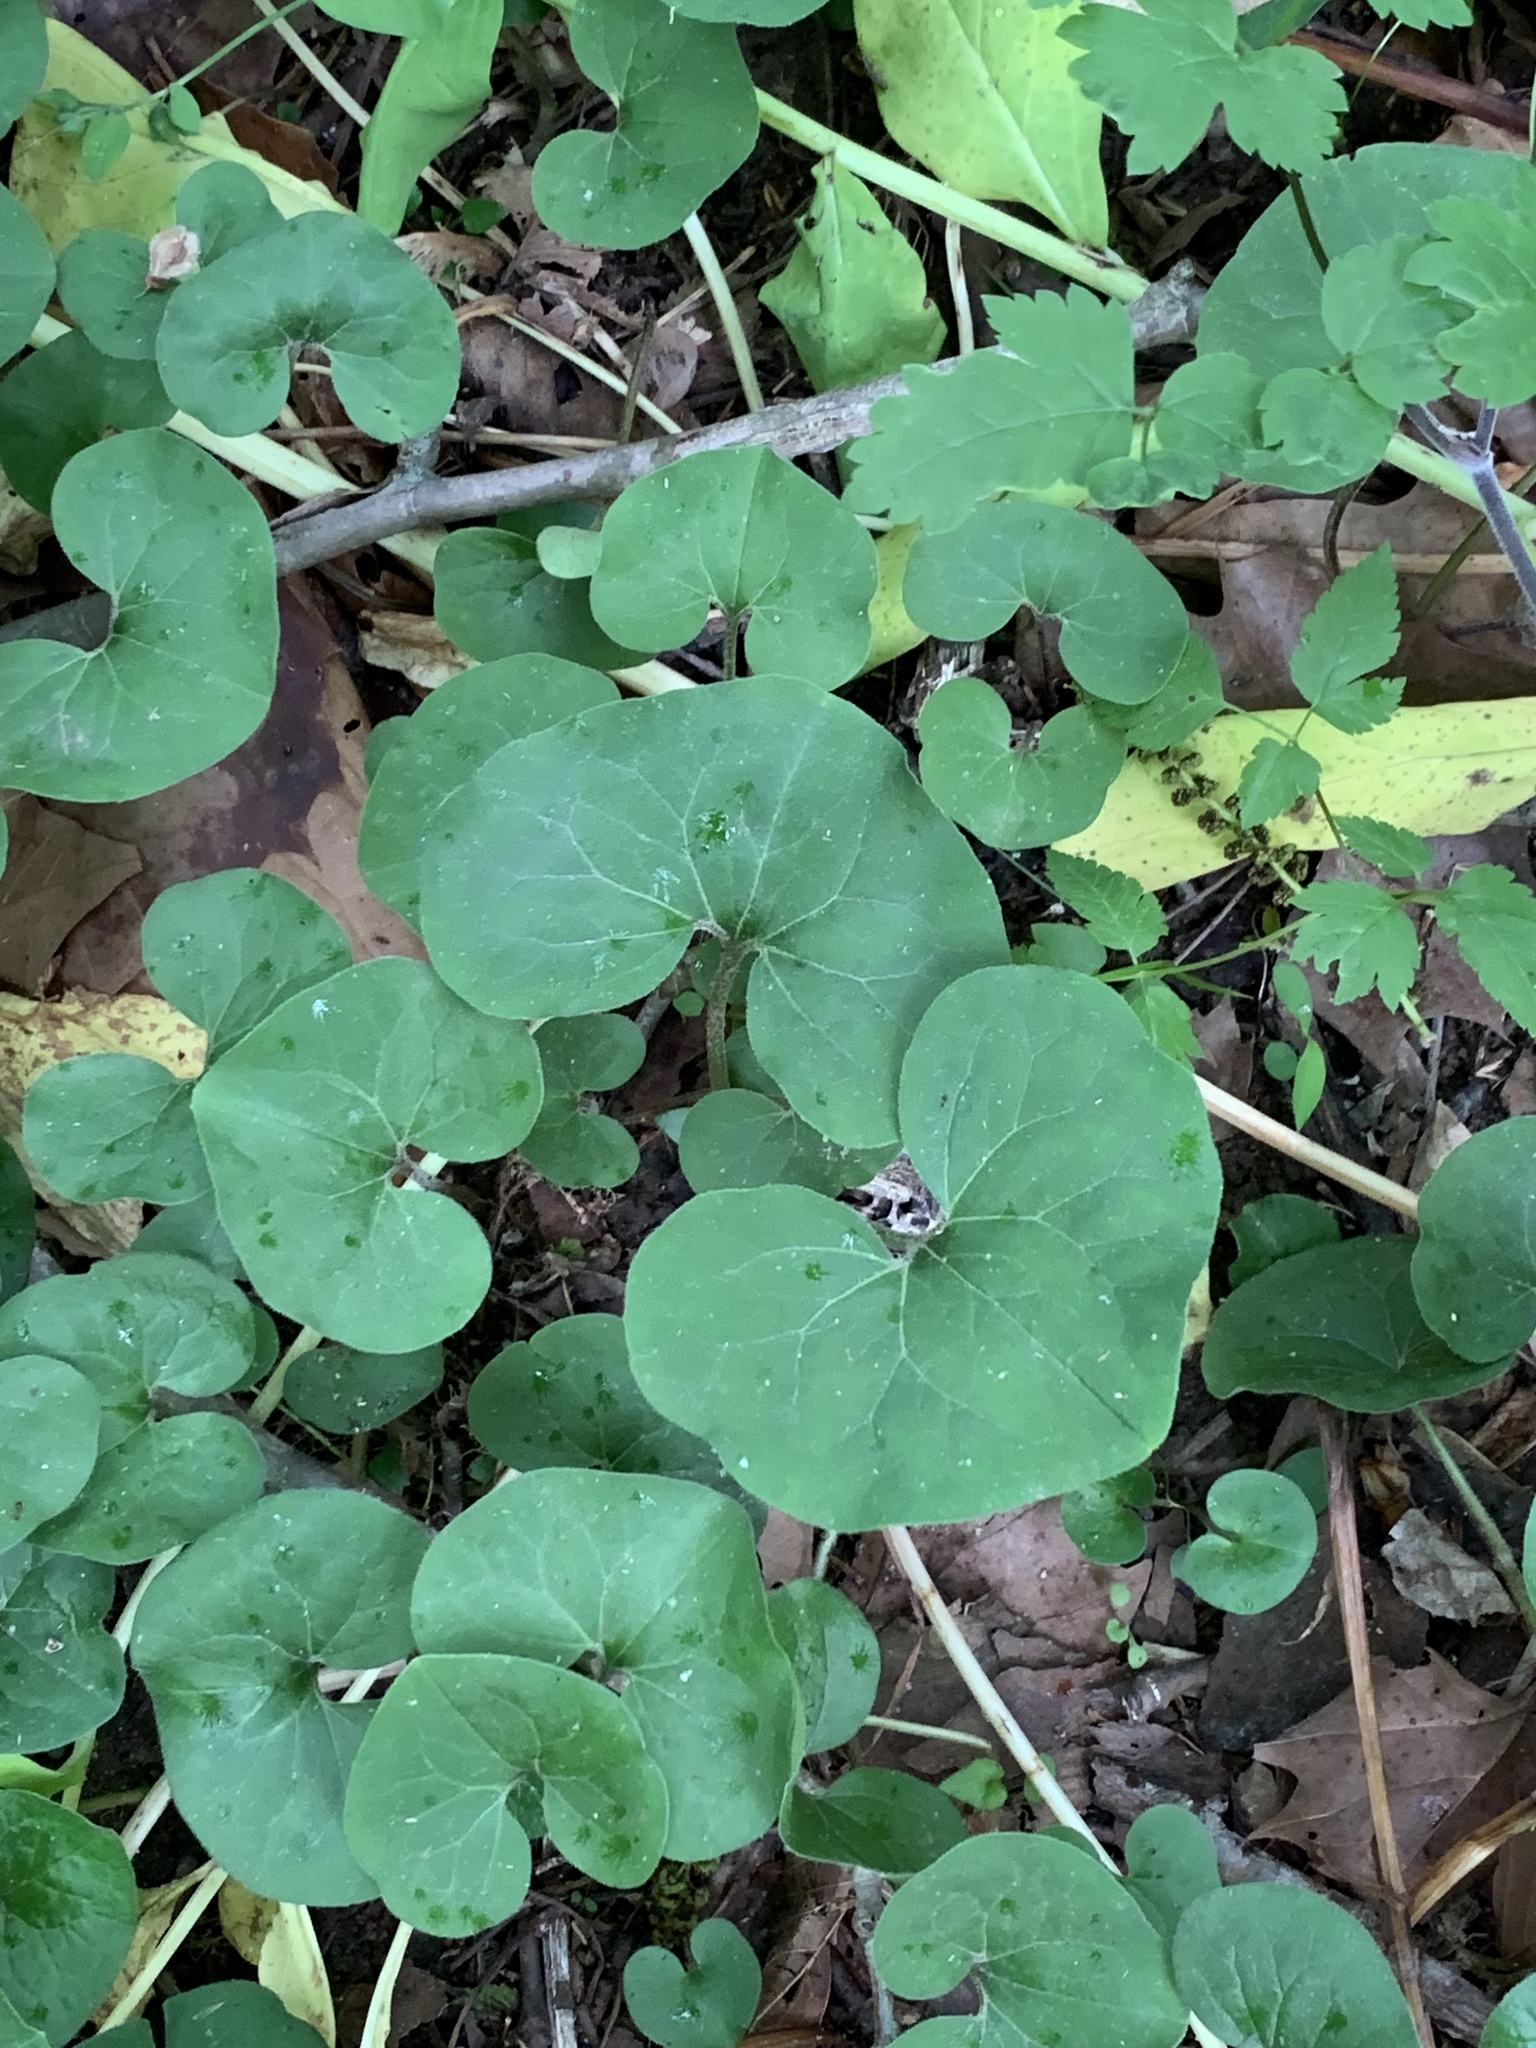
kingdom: Plantae
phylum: Tracheophyta
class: Magnoliopsida
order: Piperales
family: Aristolochiaceae
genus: Asarum
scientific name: Asarum canadense
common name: Wild ginger
